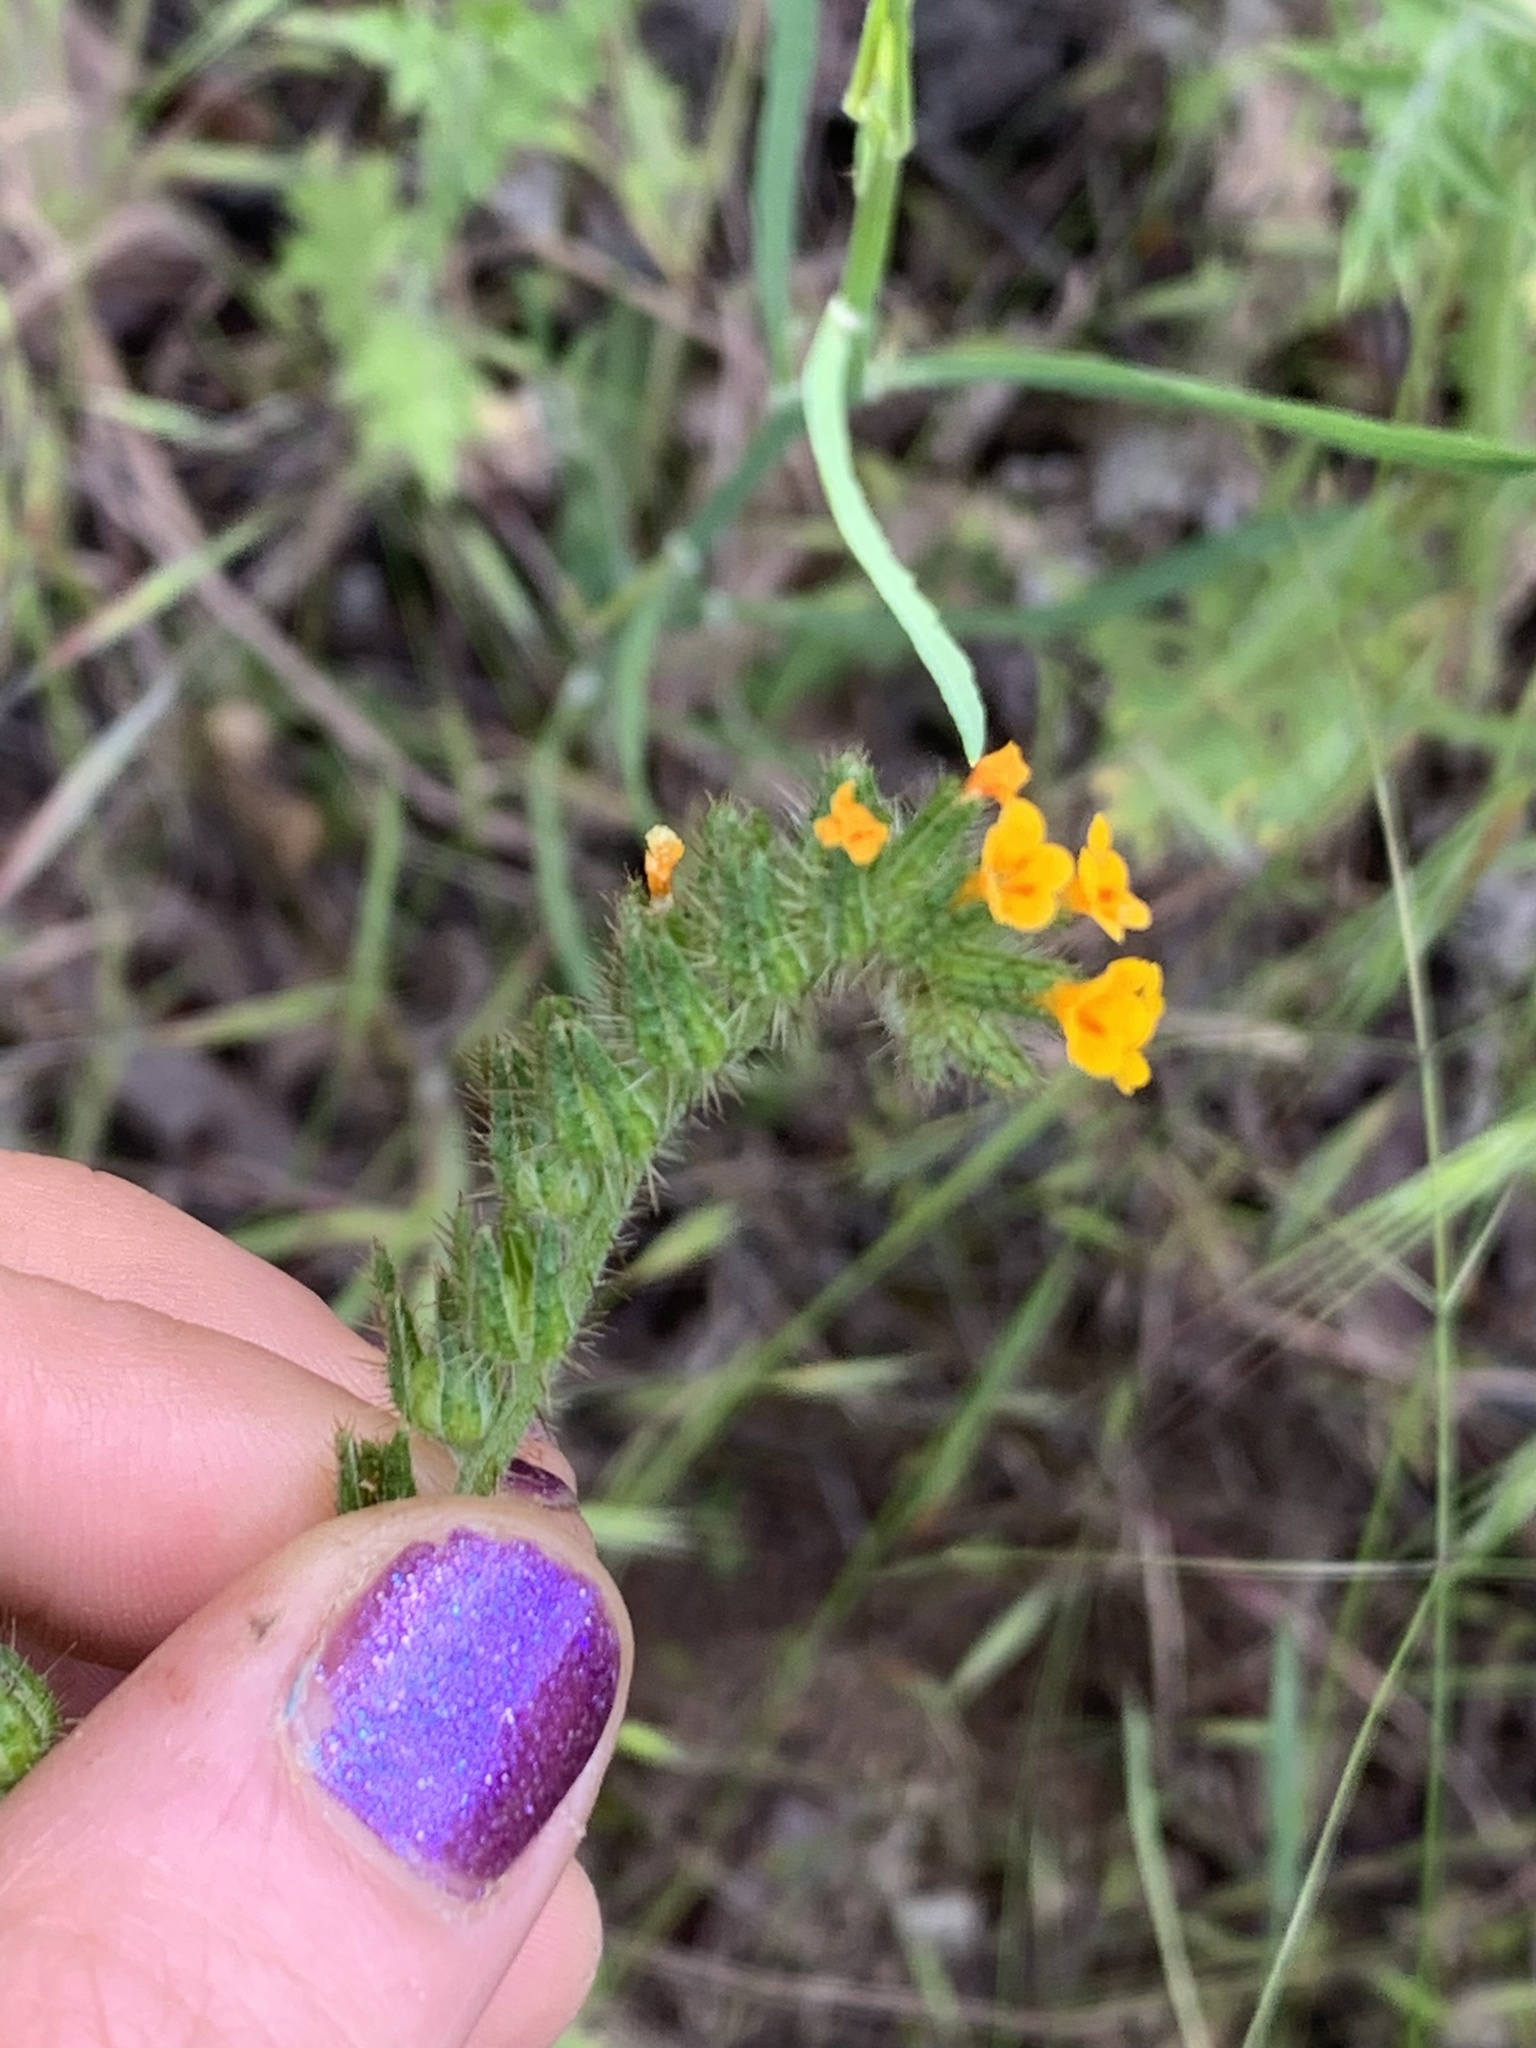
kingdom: Plantae
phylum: Tracheophyta
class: Magnoliopsida
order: Boraginales
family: Boraginaceae
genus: Amsinckia
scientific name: Amsinckia menziesii
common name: Menzies' fiddleneck
